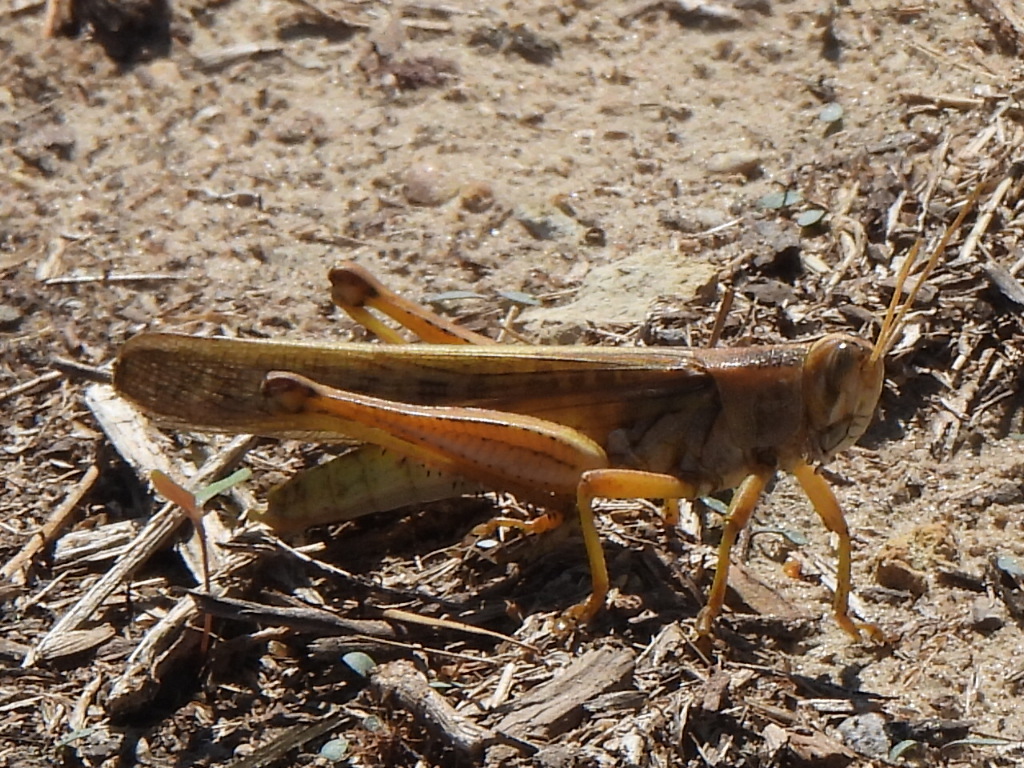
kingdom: Animalia
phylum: Arthropoda
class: Insecta
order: Orthoptera
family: Acrididae
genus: Schistocerca
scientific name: Schistocerca americana
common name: American bird locust
